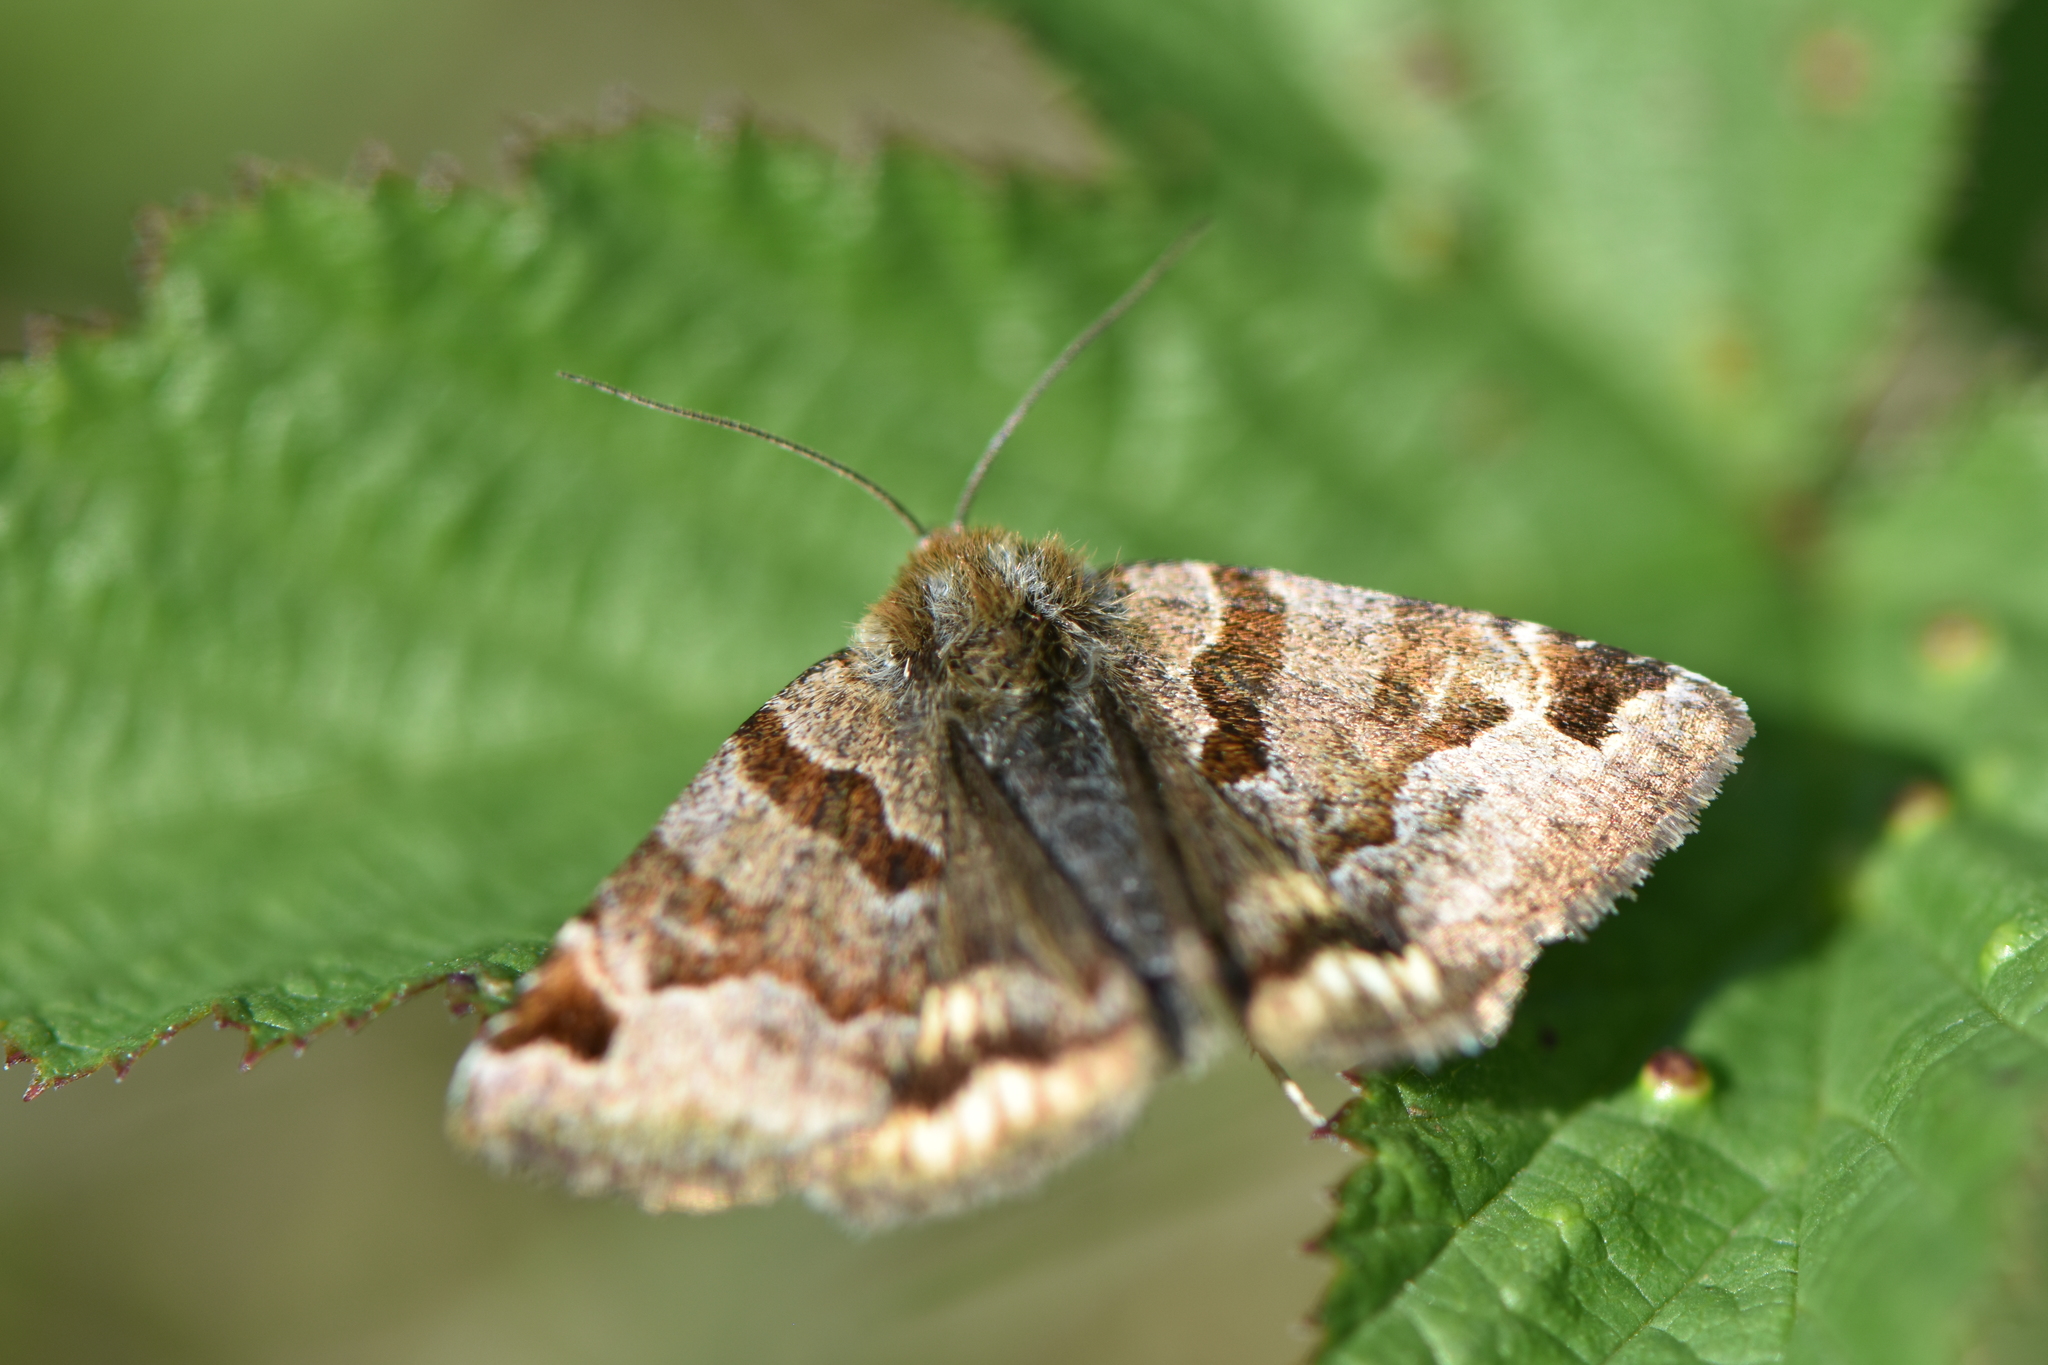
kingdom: Animalia
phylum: Arthropoda
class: Insecta
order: Lepidoptera
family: Erebidae
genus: Euclidia
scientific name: Euclidia glyphica
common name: Burnet companion
